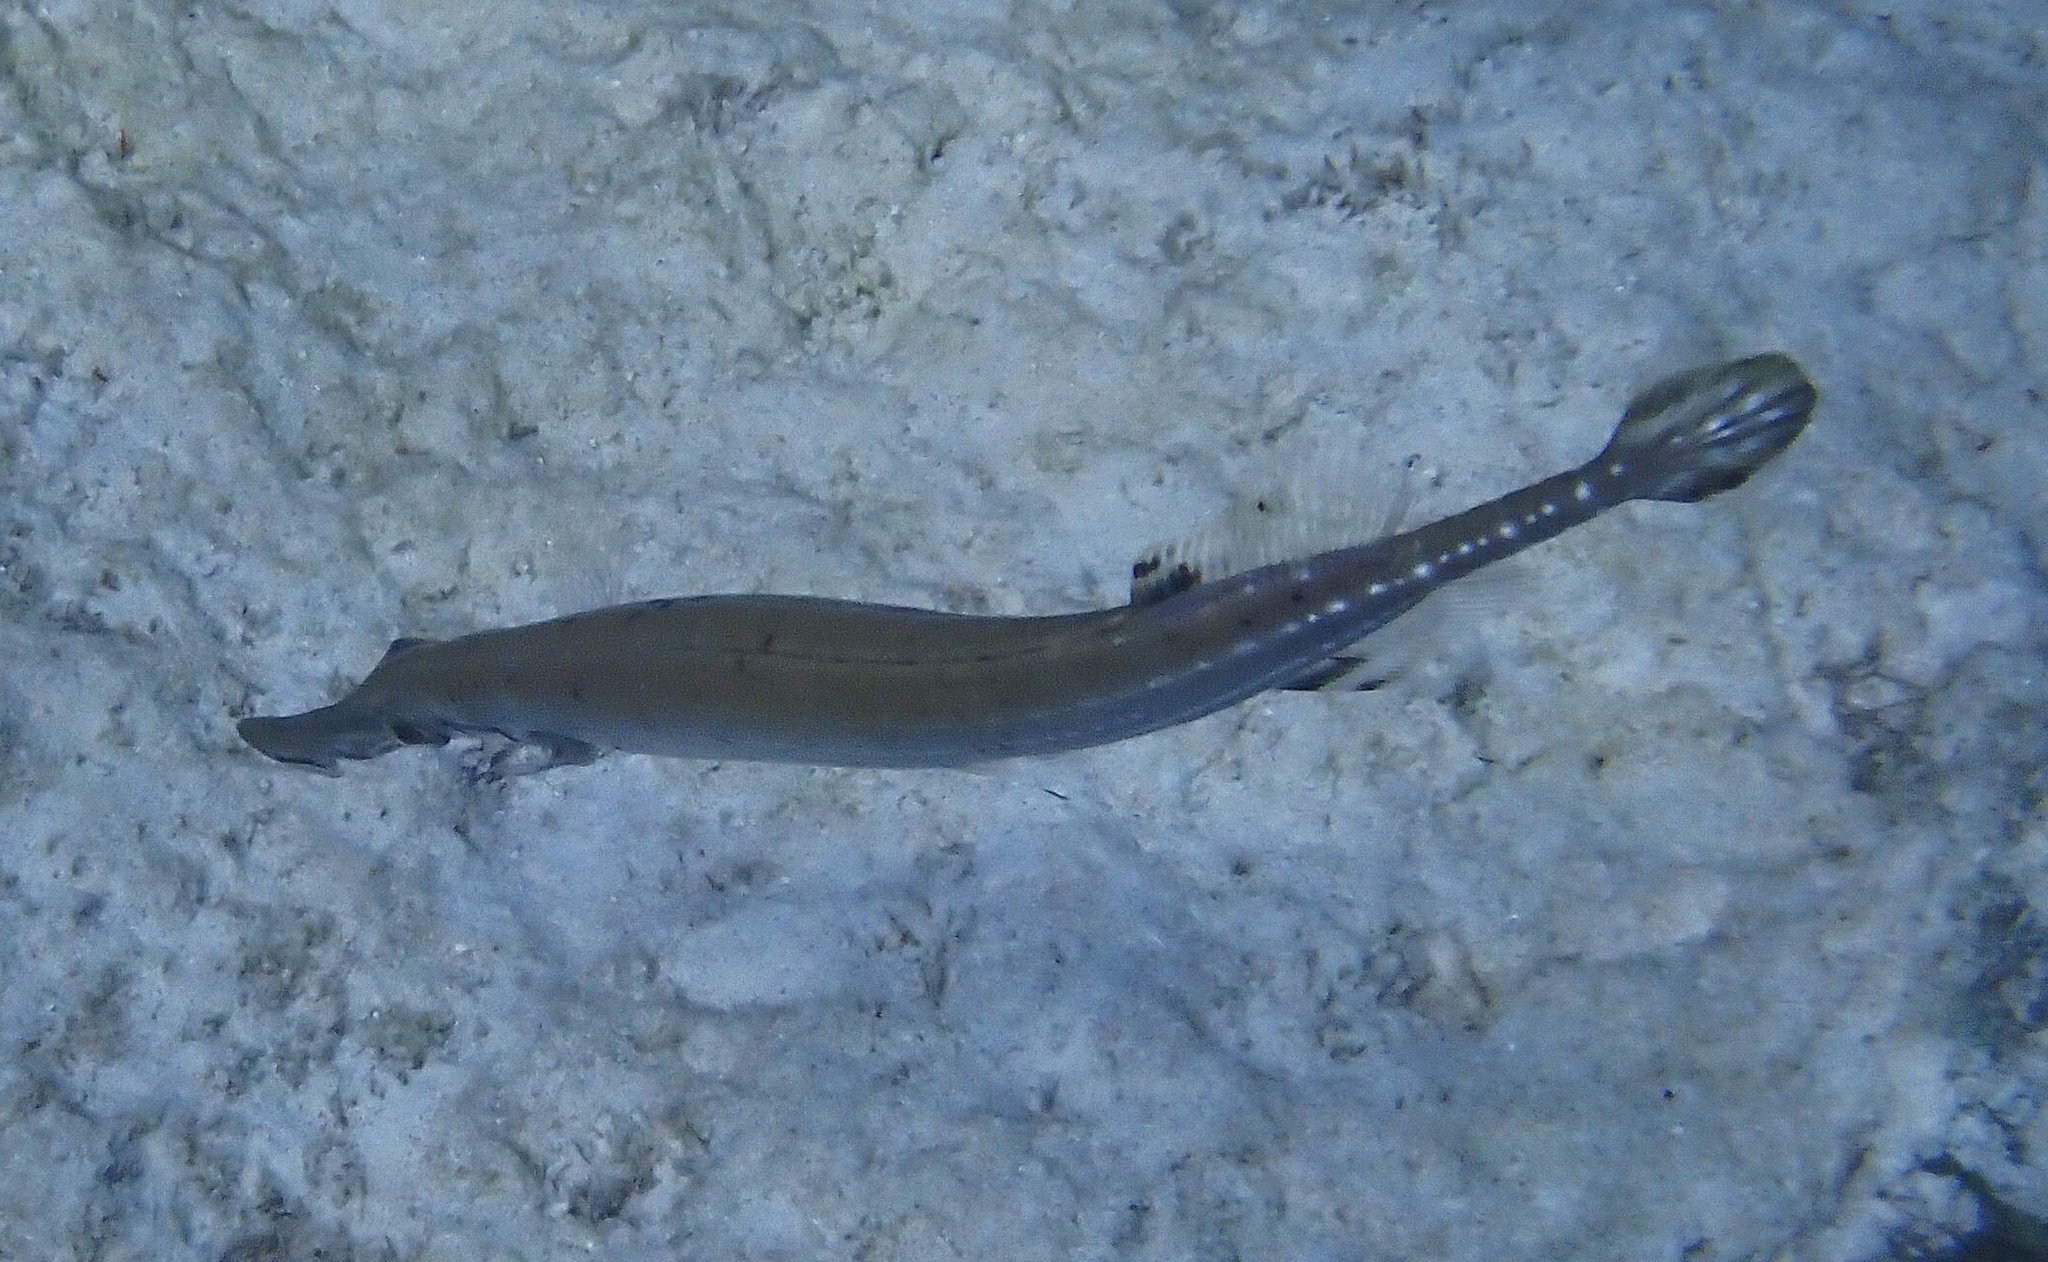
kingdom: Animalia
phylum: Chordata
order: Syngnathiformes
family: Aulostomidae
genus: Aulostomus
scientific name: Aulostomus maculatus
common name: West atlantic trumpetfish
